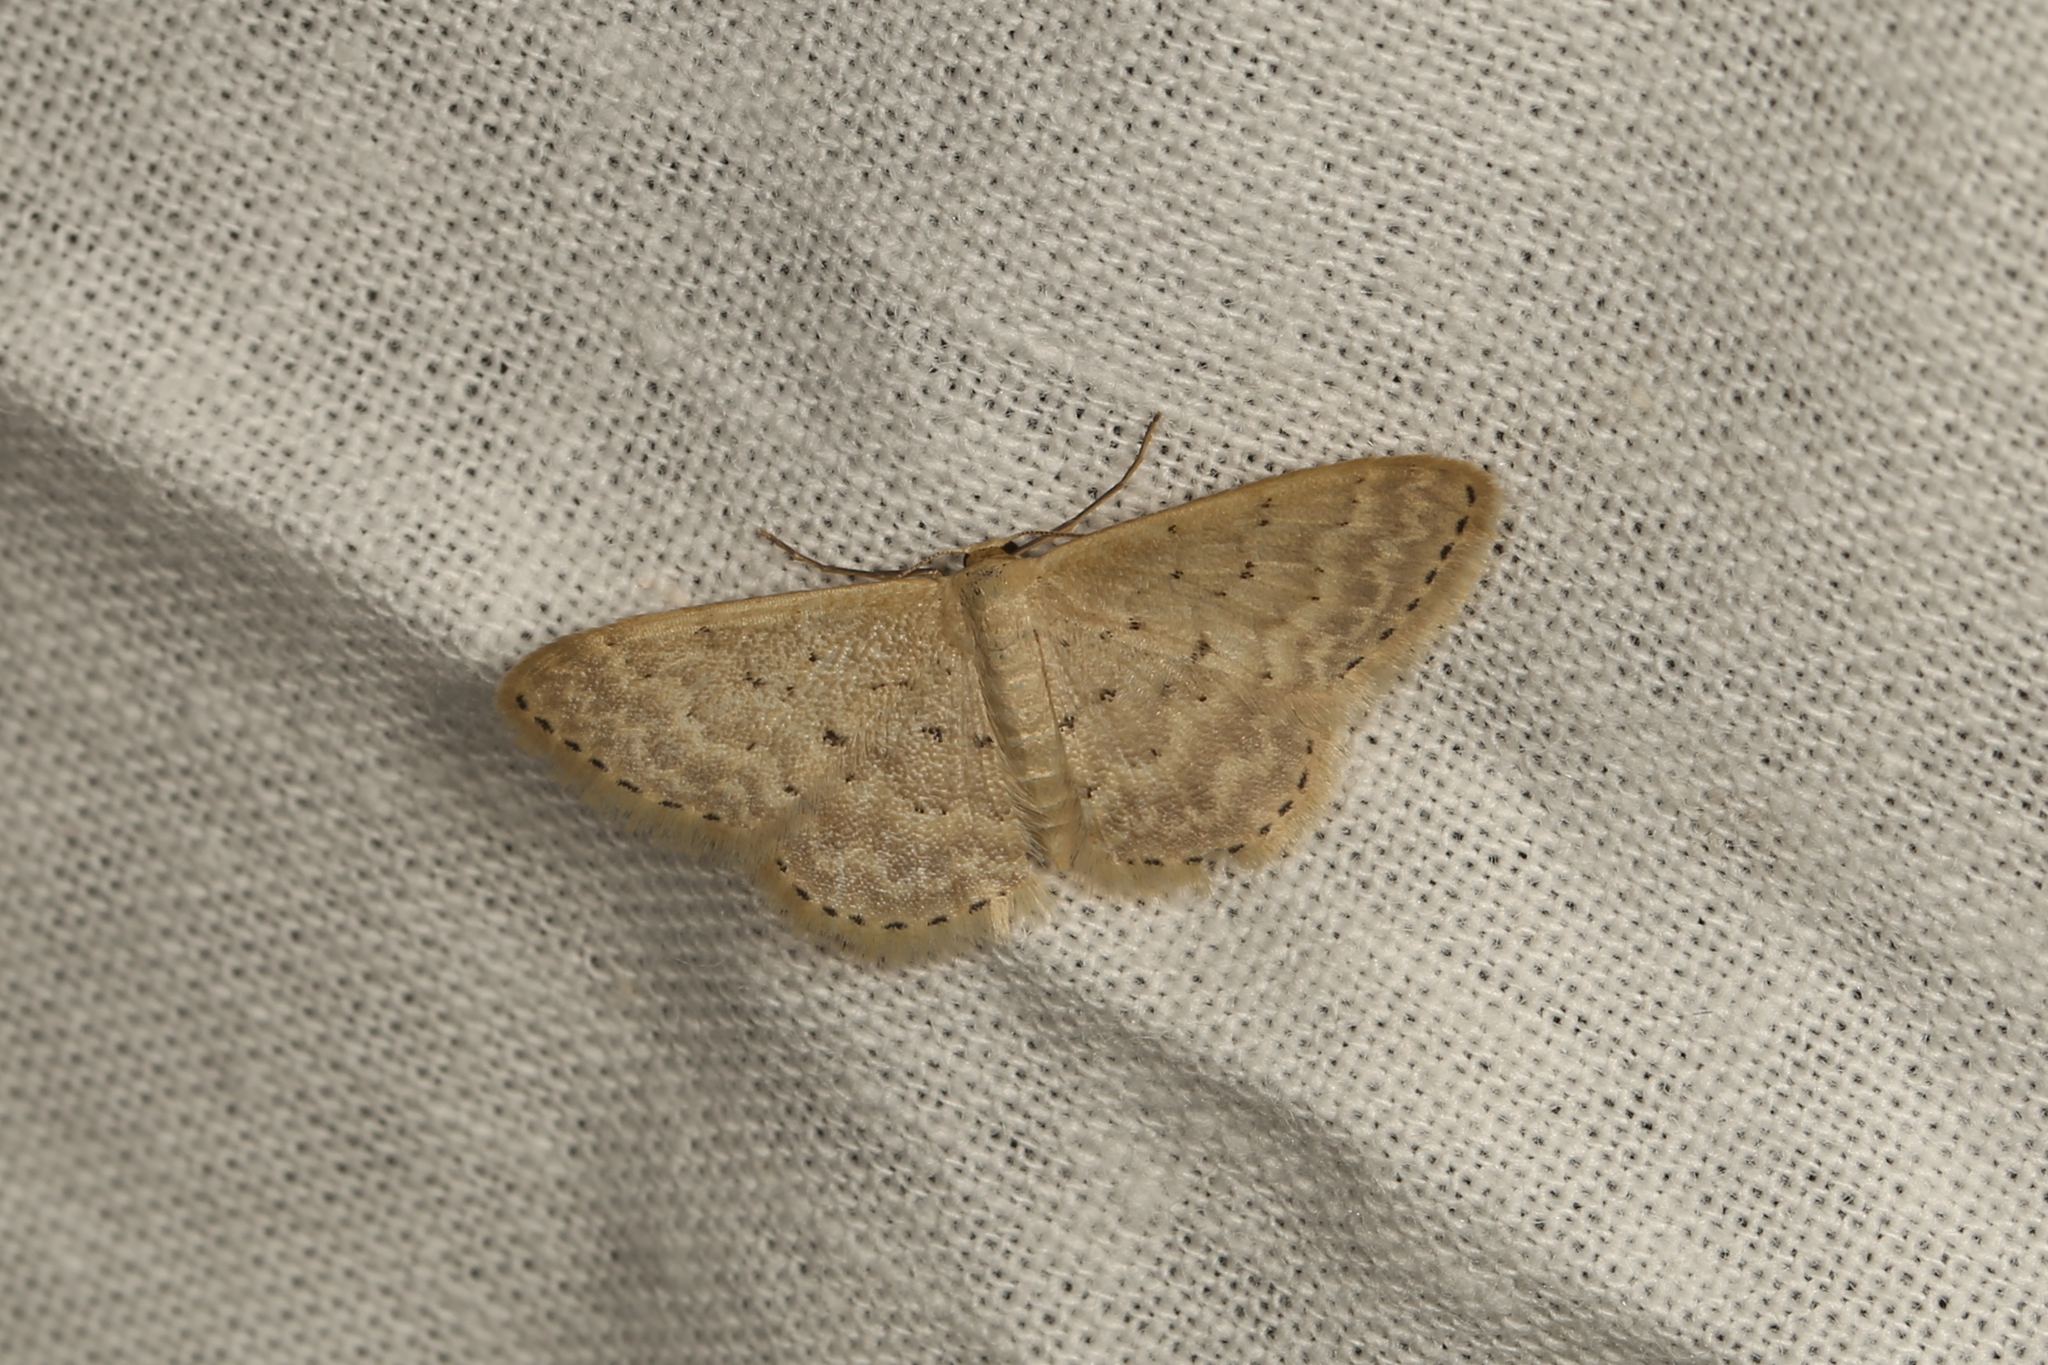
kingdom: Animalia
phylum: Arthropoda
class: Insecta
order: Lepidoptera
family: Geometridae
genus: Idaea
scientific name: Idaea philocosma
